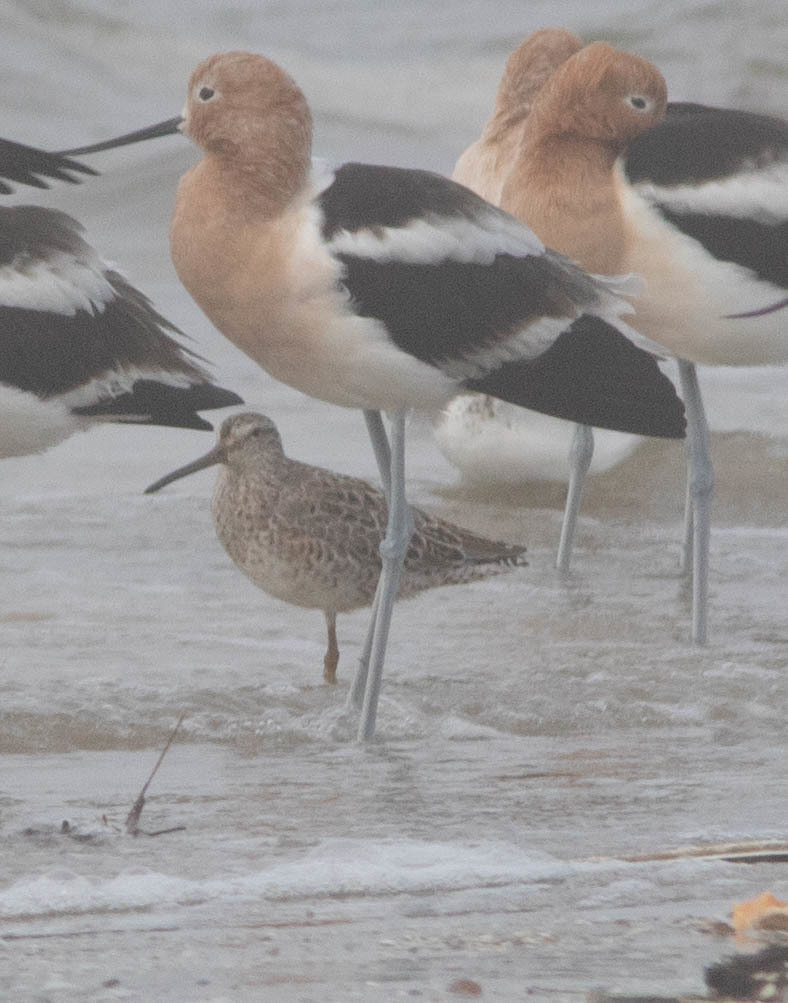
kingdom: Animalia
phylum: Chordata
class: Aves
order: Charadriiformes
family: Scolopacidae
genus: Limnodromus
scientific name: Limnodromus griseus
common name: Short-billed dowitcher
